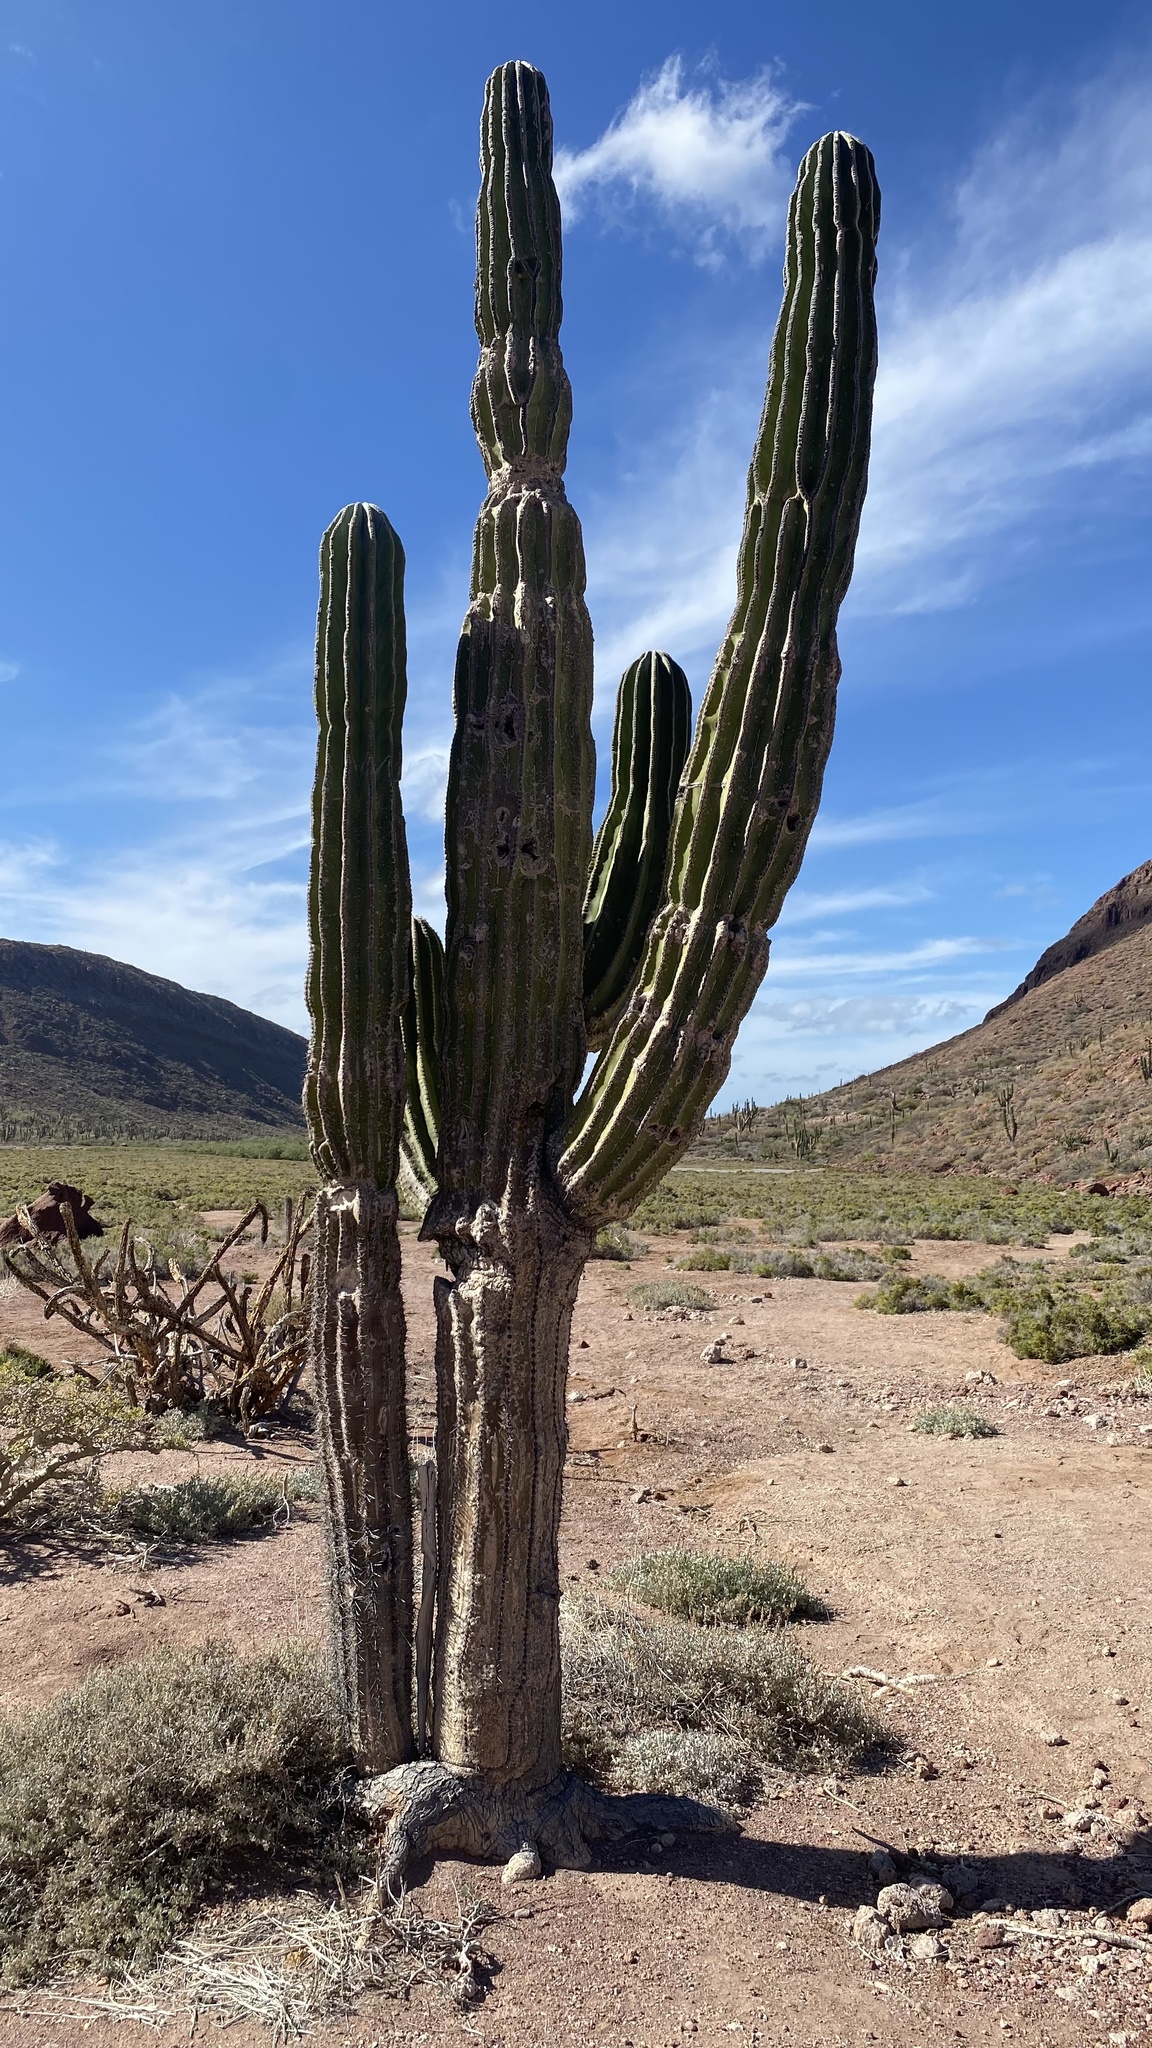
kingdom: Plantae
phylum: Tracheophyta
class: Magnoliopsida
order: Caryophyllales
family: Cactaceae
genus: Pachycereus
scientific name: Pachycereus pringlei
